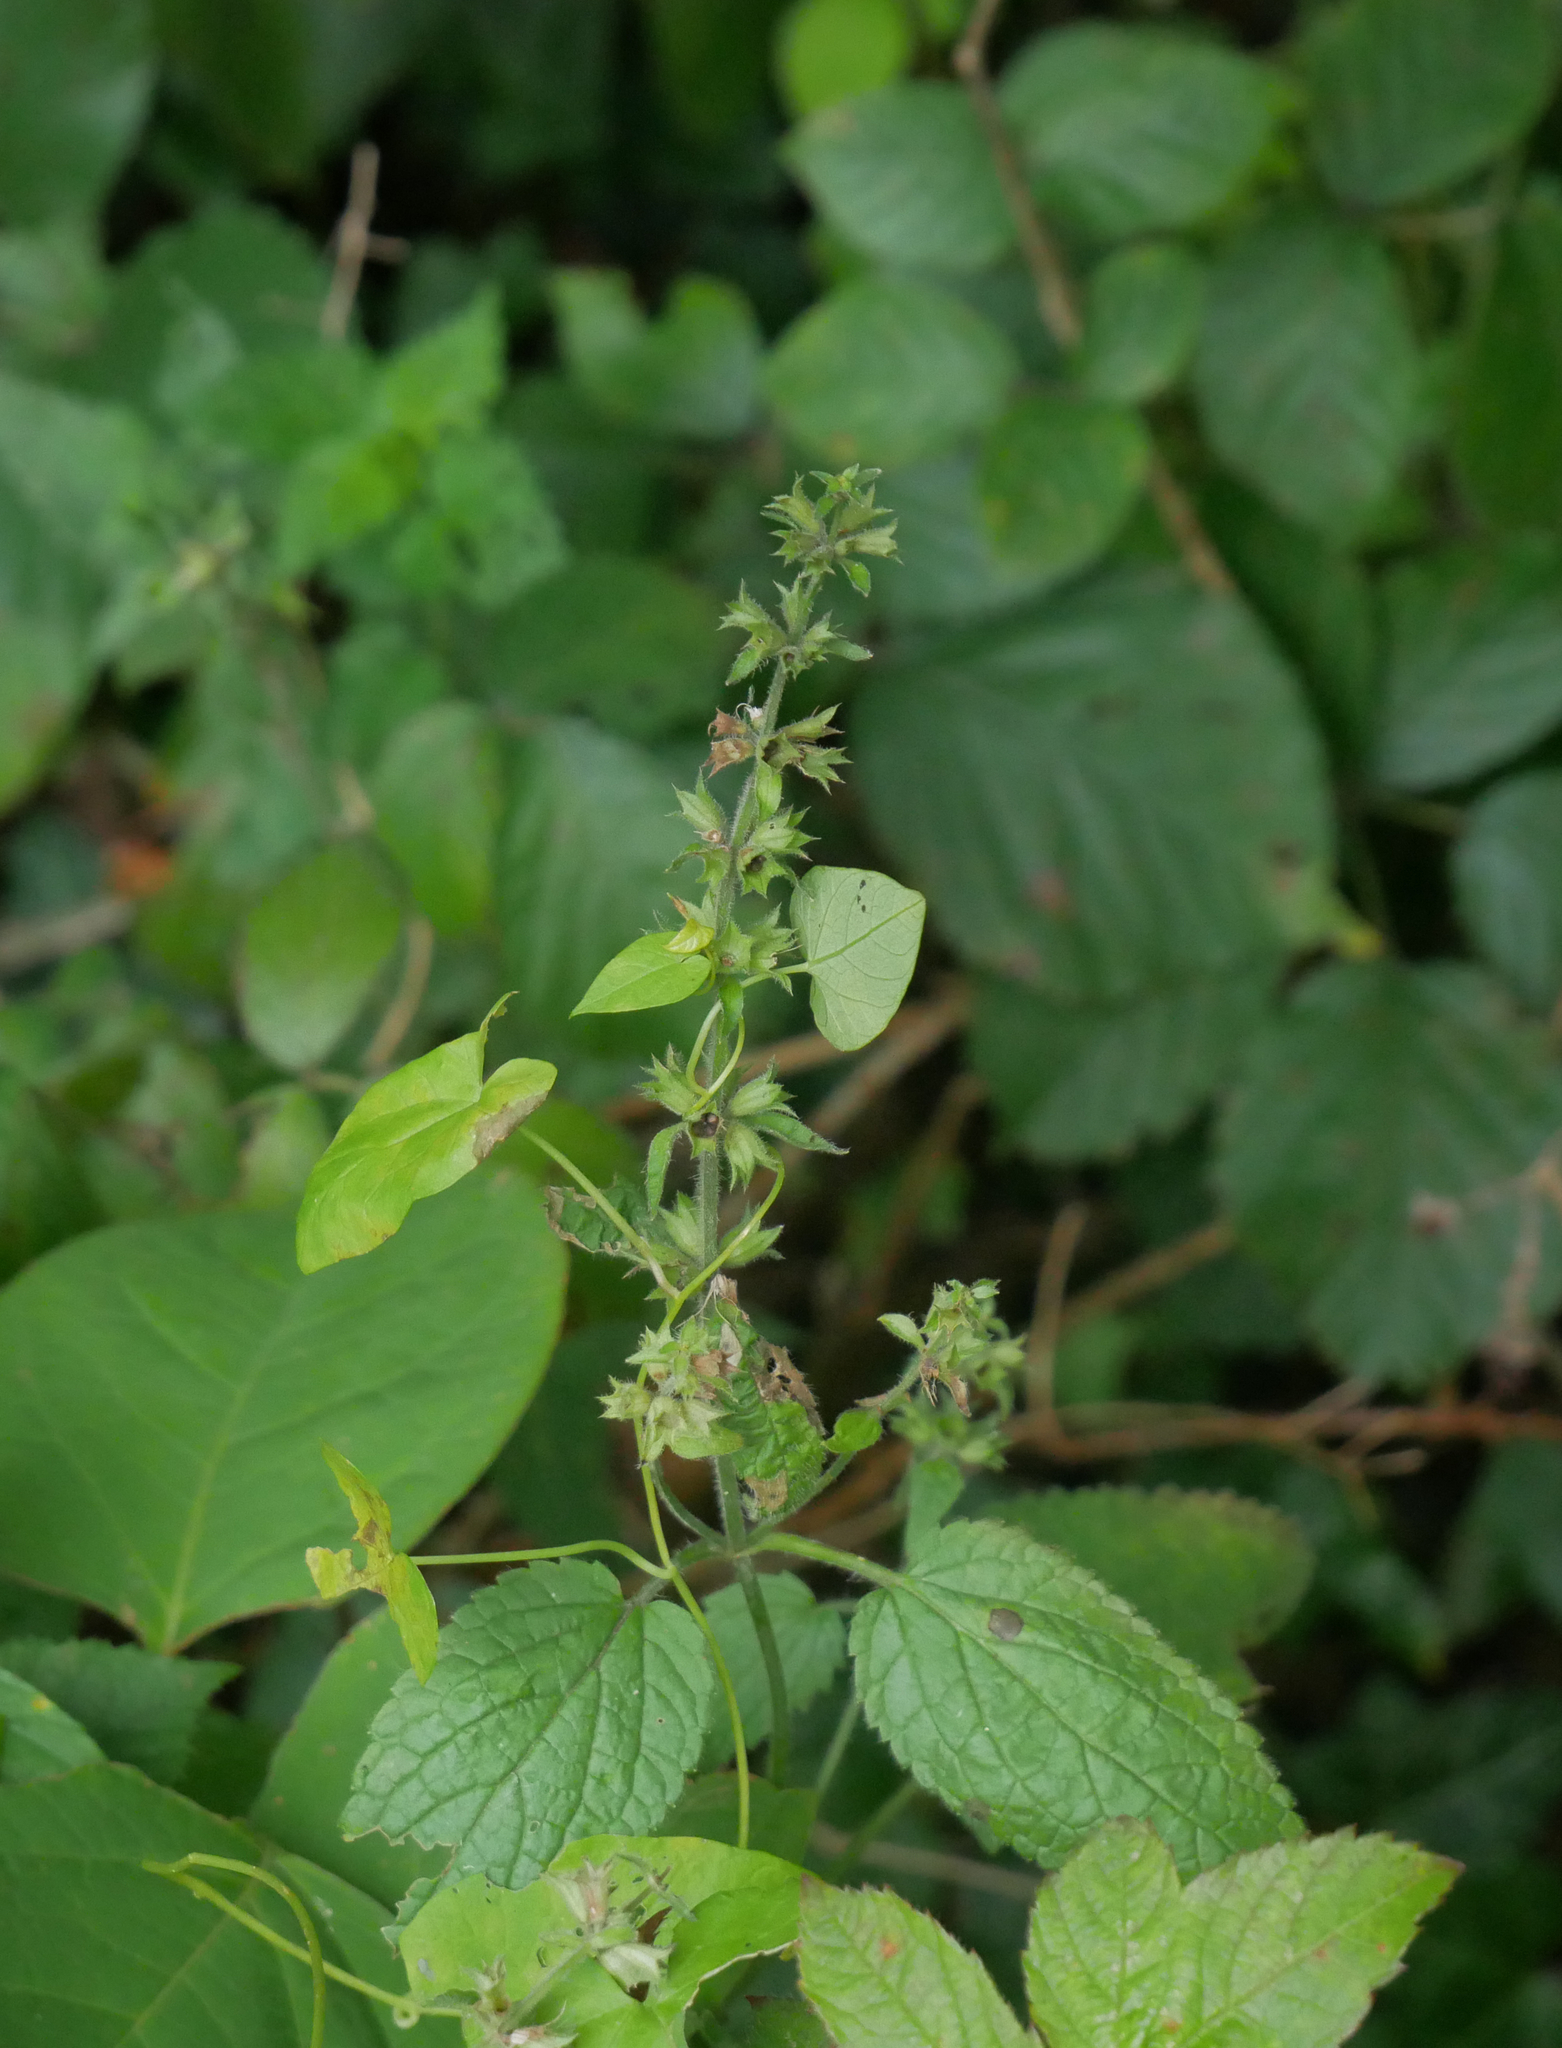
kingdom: Plantae
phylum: Tracheophyta
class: Magnoliopsida
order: Lamiales
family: Lamiaceae
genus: Stachys
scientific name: Stachys sylvatica
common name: Hedge woundwort
